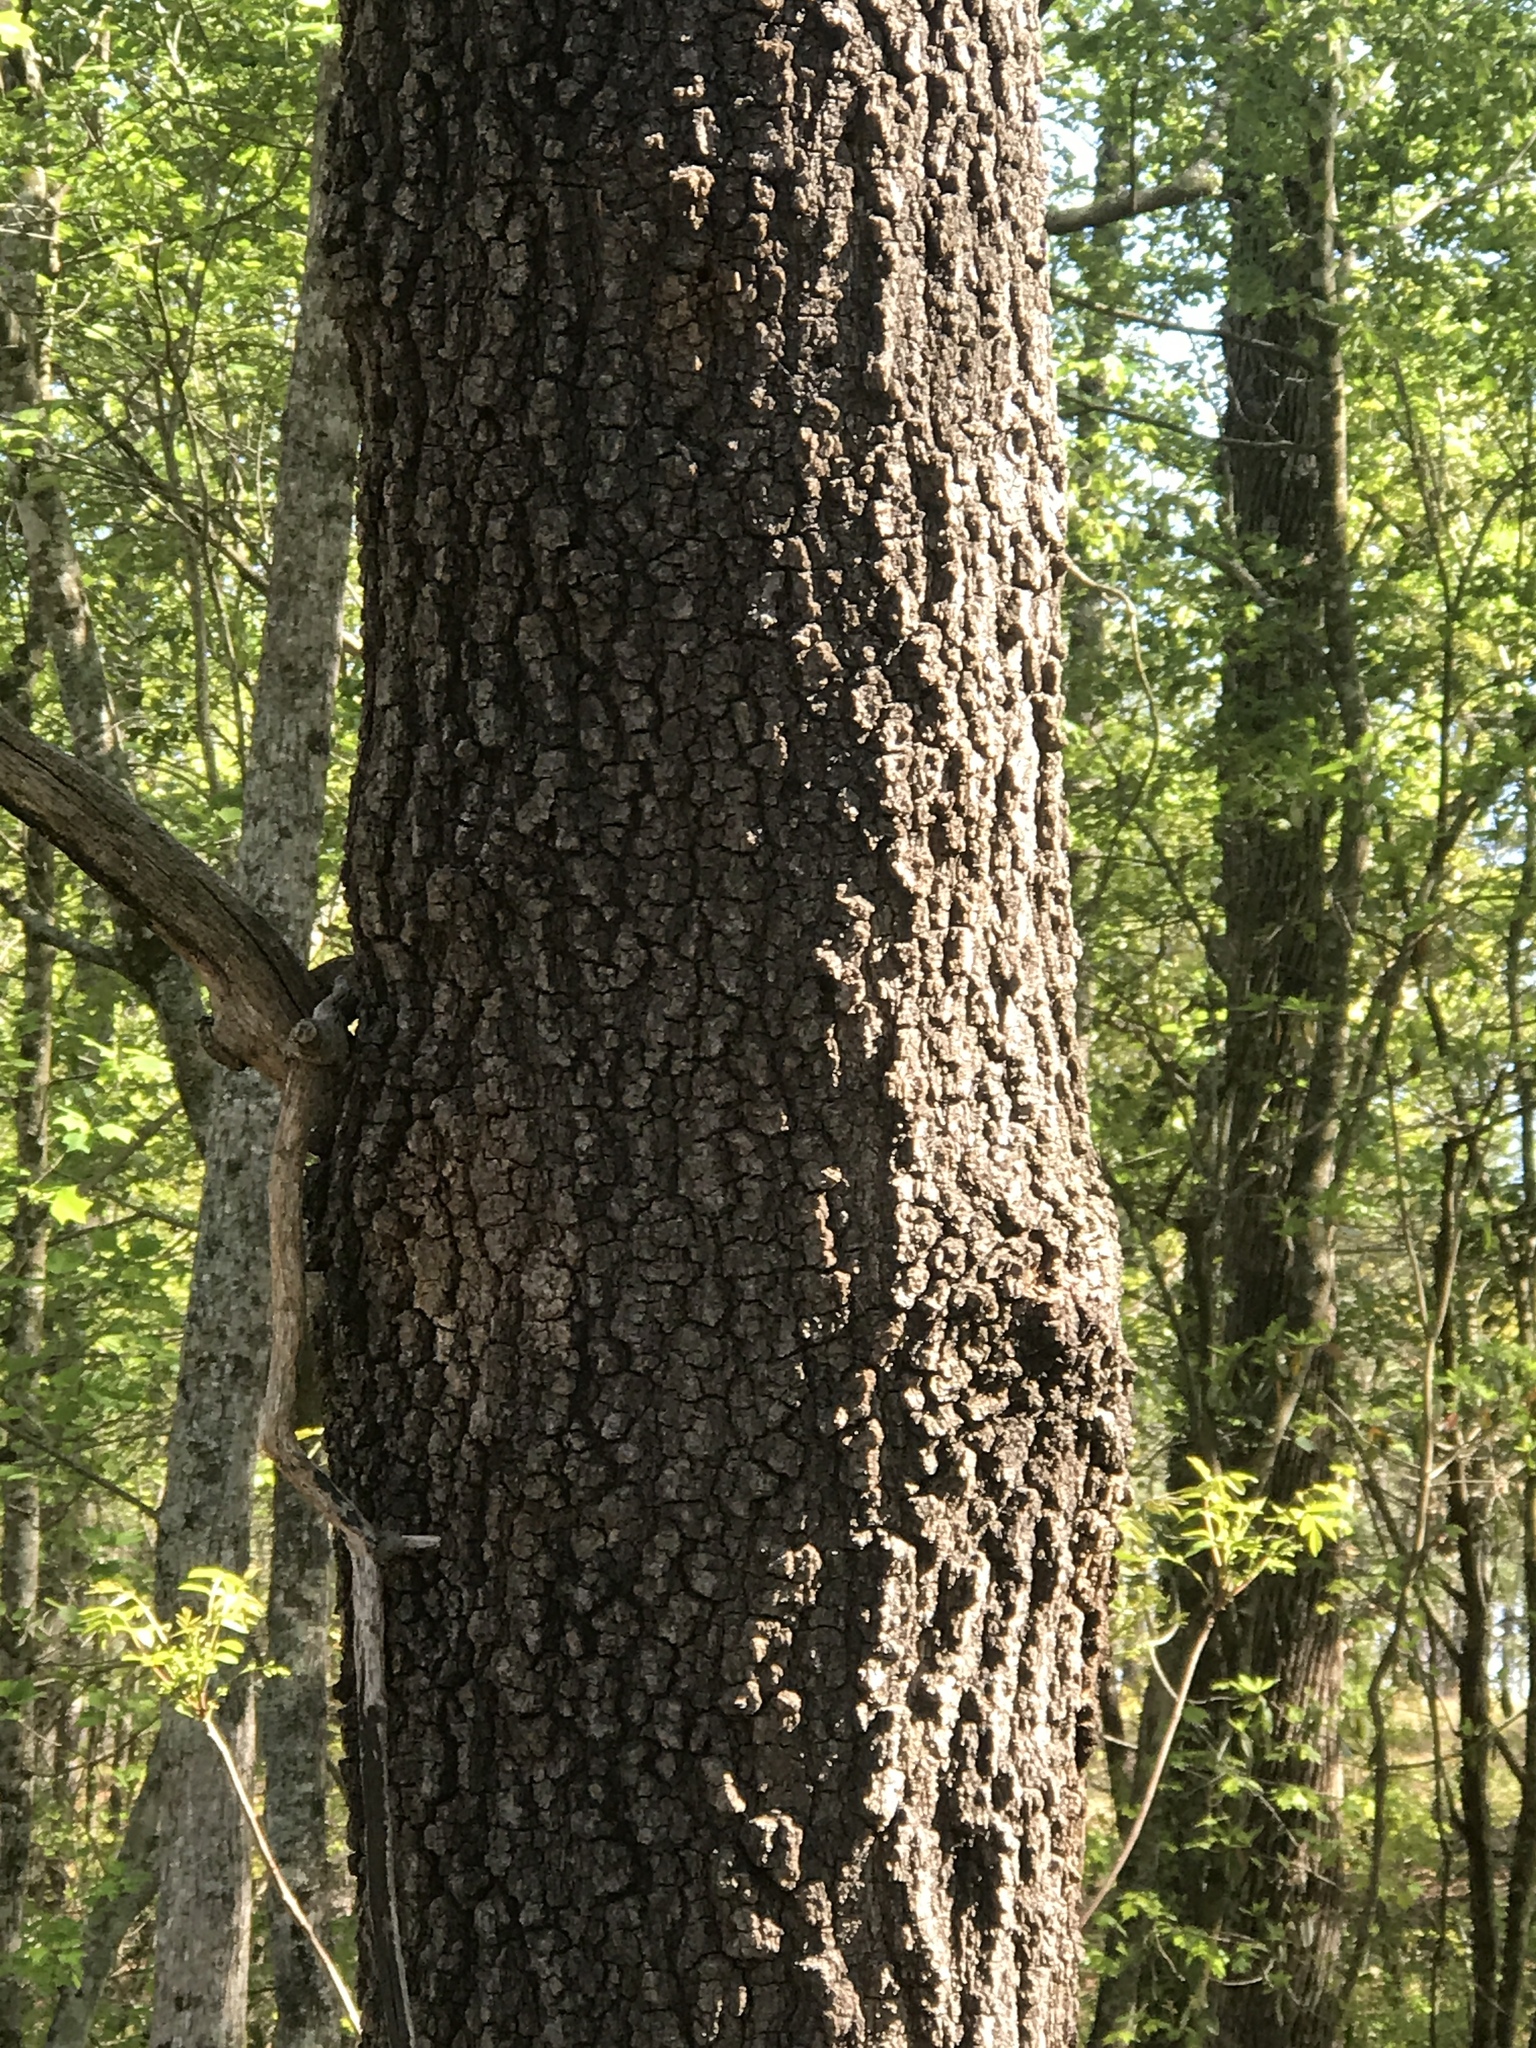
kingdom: Plantae
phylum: Tracheophyta
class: Magnoliopsida
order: Fagales
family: Fagaceae
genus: Quercus
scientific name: Quercus marilandica
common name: Blackjack oak
